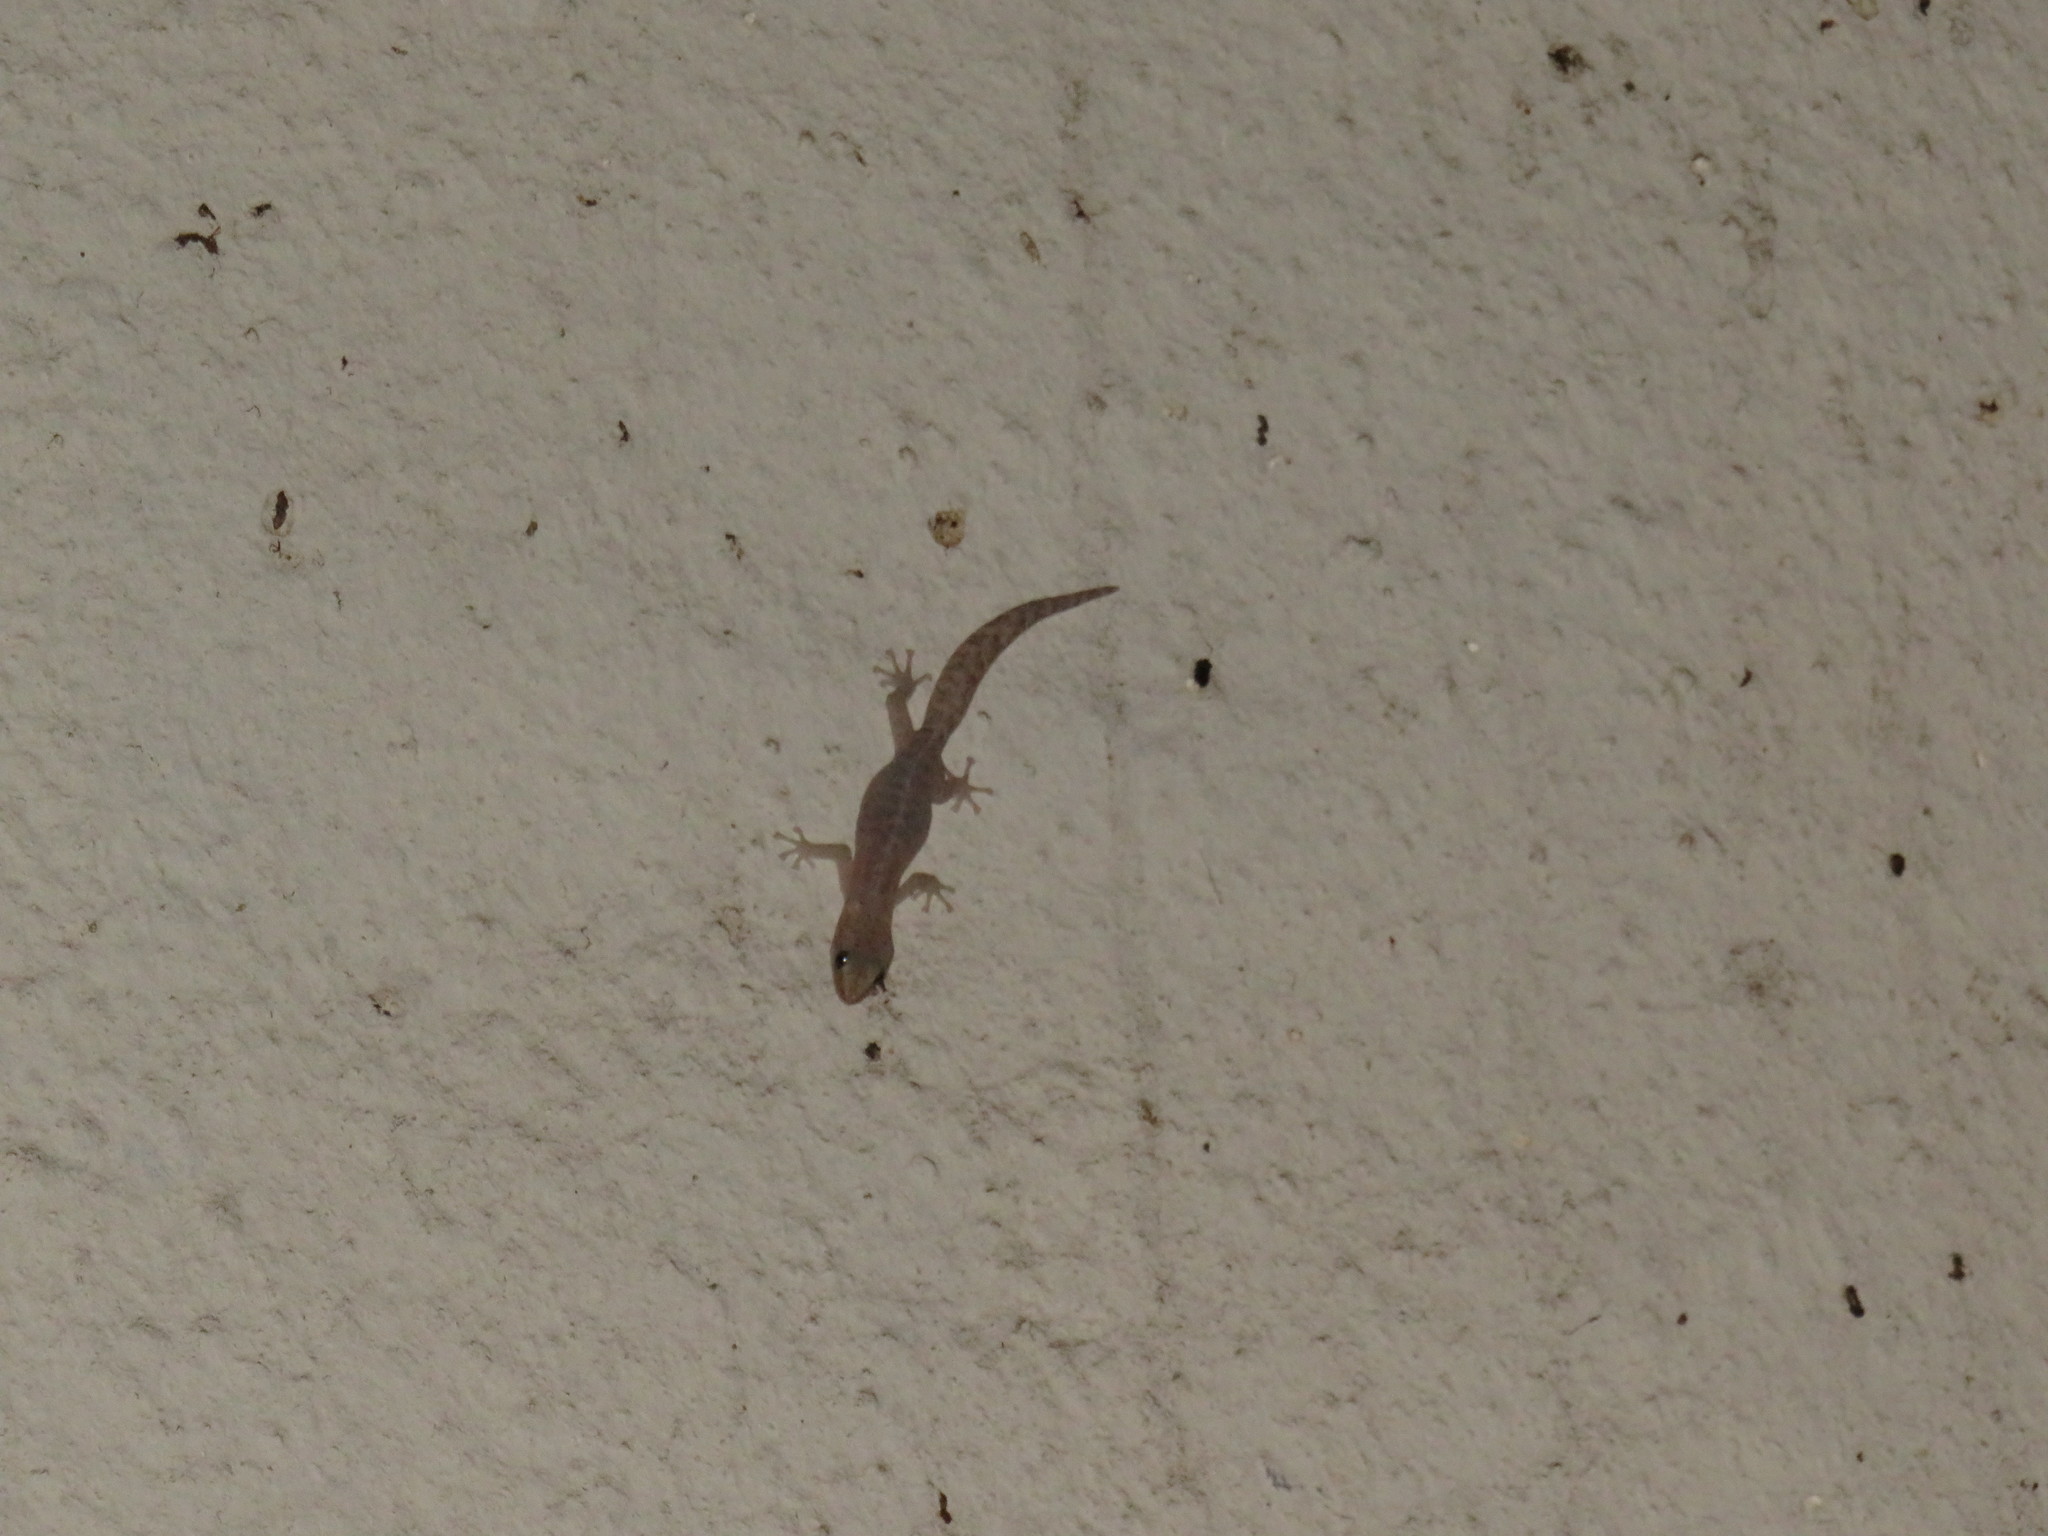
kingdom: Animalia
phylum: Chordata
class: Squamata
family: Gekkonidae
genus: Afrogecko
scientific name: Afrogecko porphyreus
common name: Marbled leaf-toed gecko
